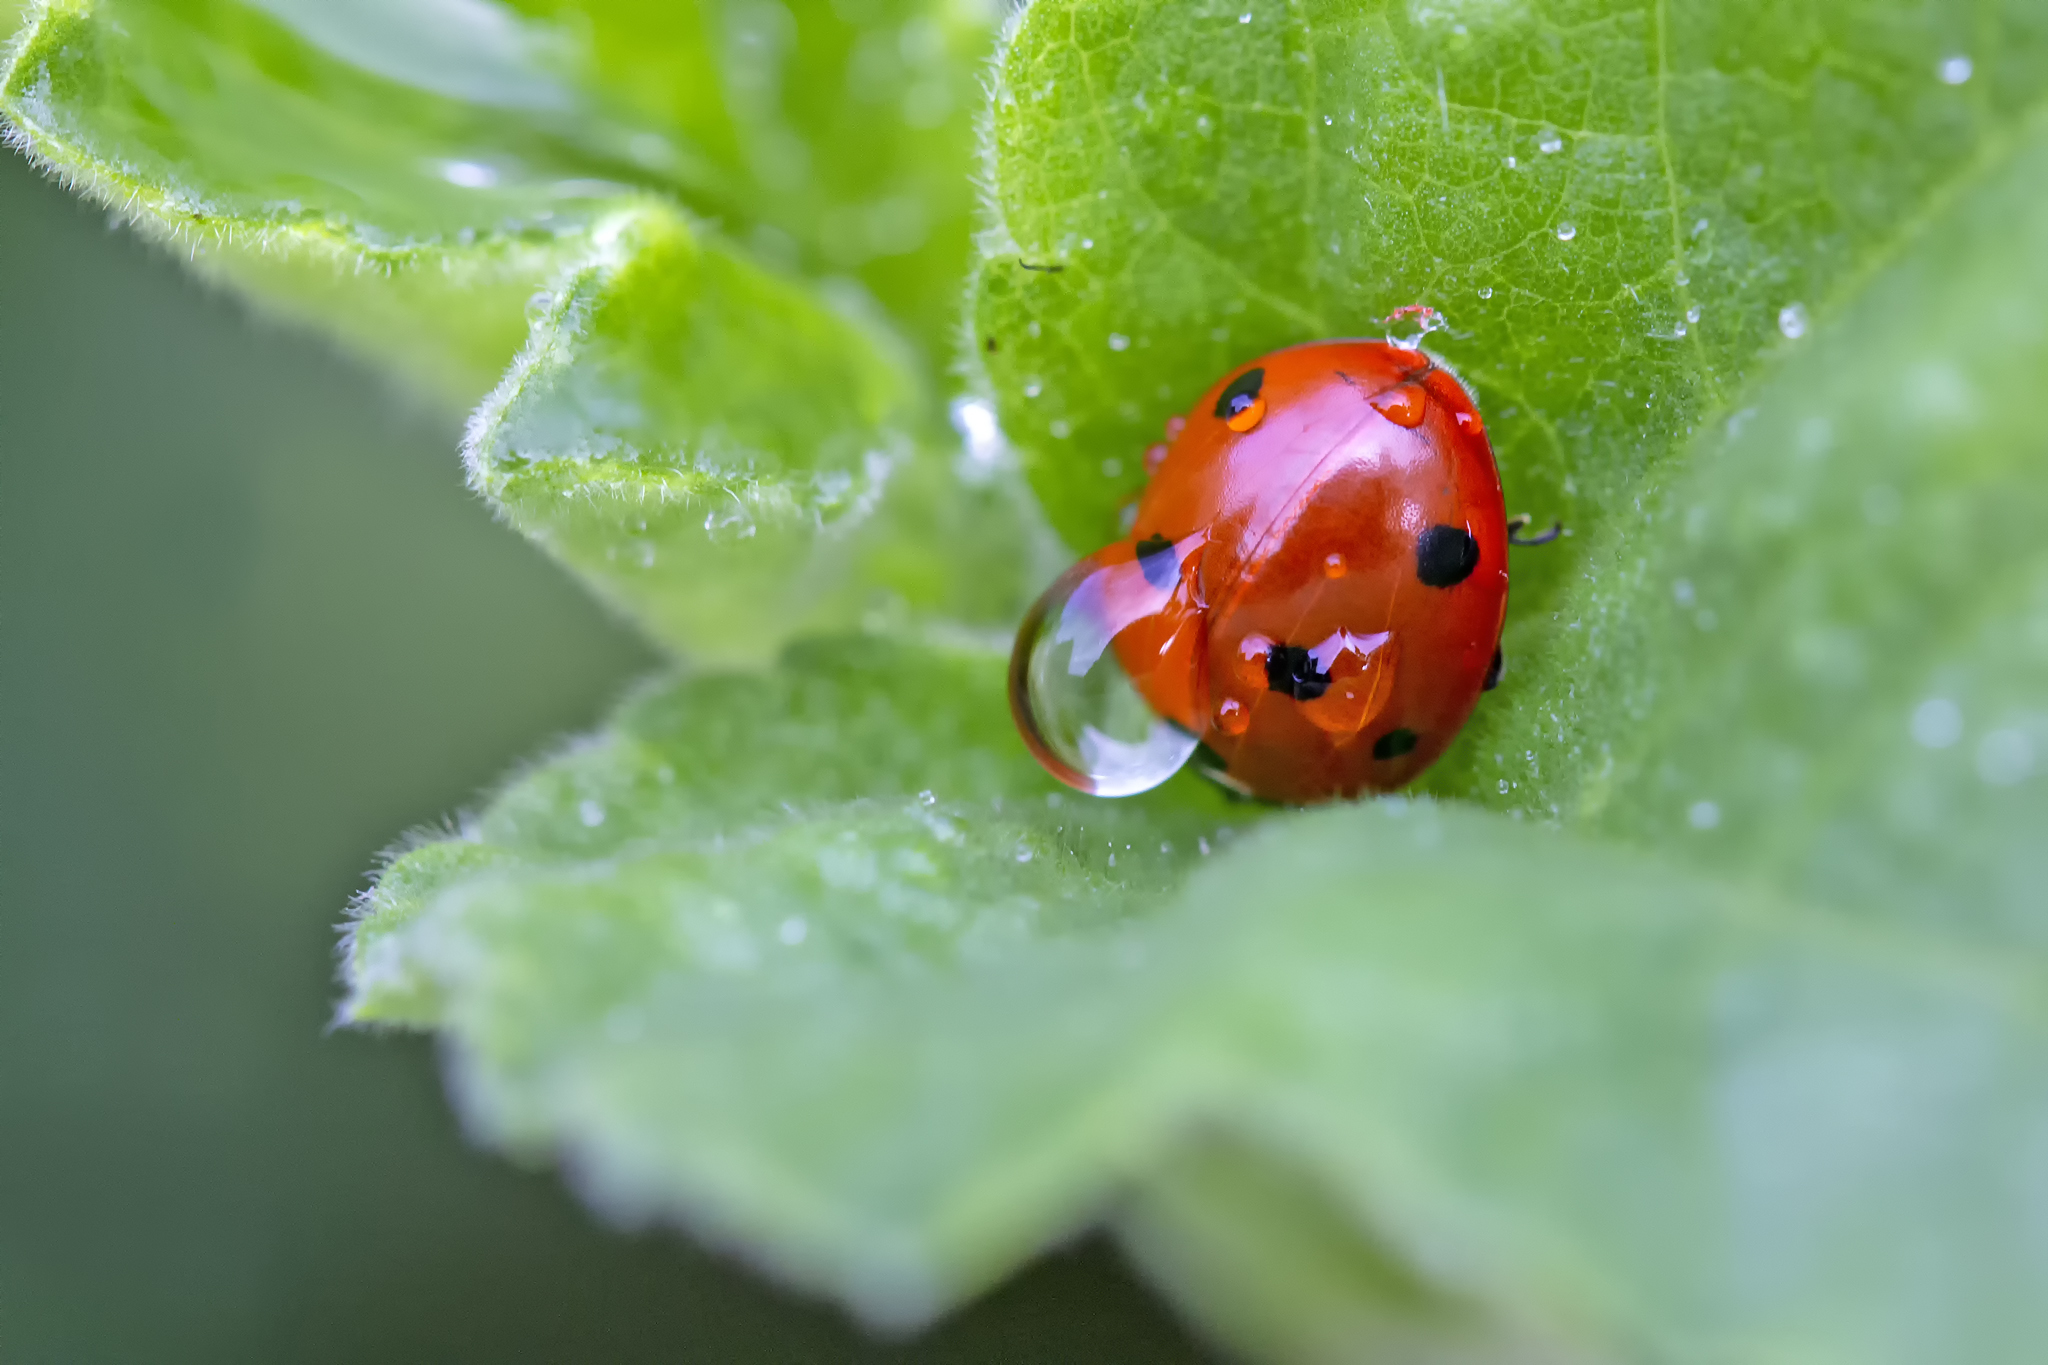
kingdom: Animalia
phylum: Arthropoda
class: Insecta
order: Coleoptera
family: Coccinellidae
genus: Coccinella
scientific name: Coccinella septempunctata
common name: Sevenspotted lady beetle
